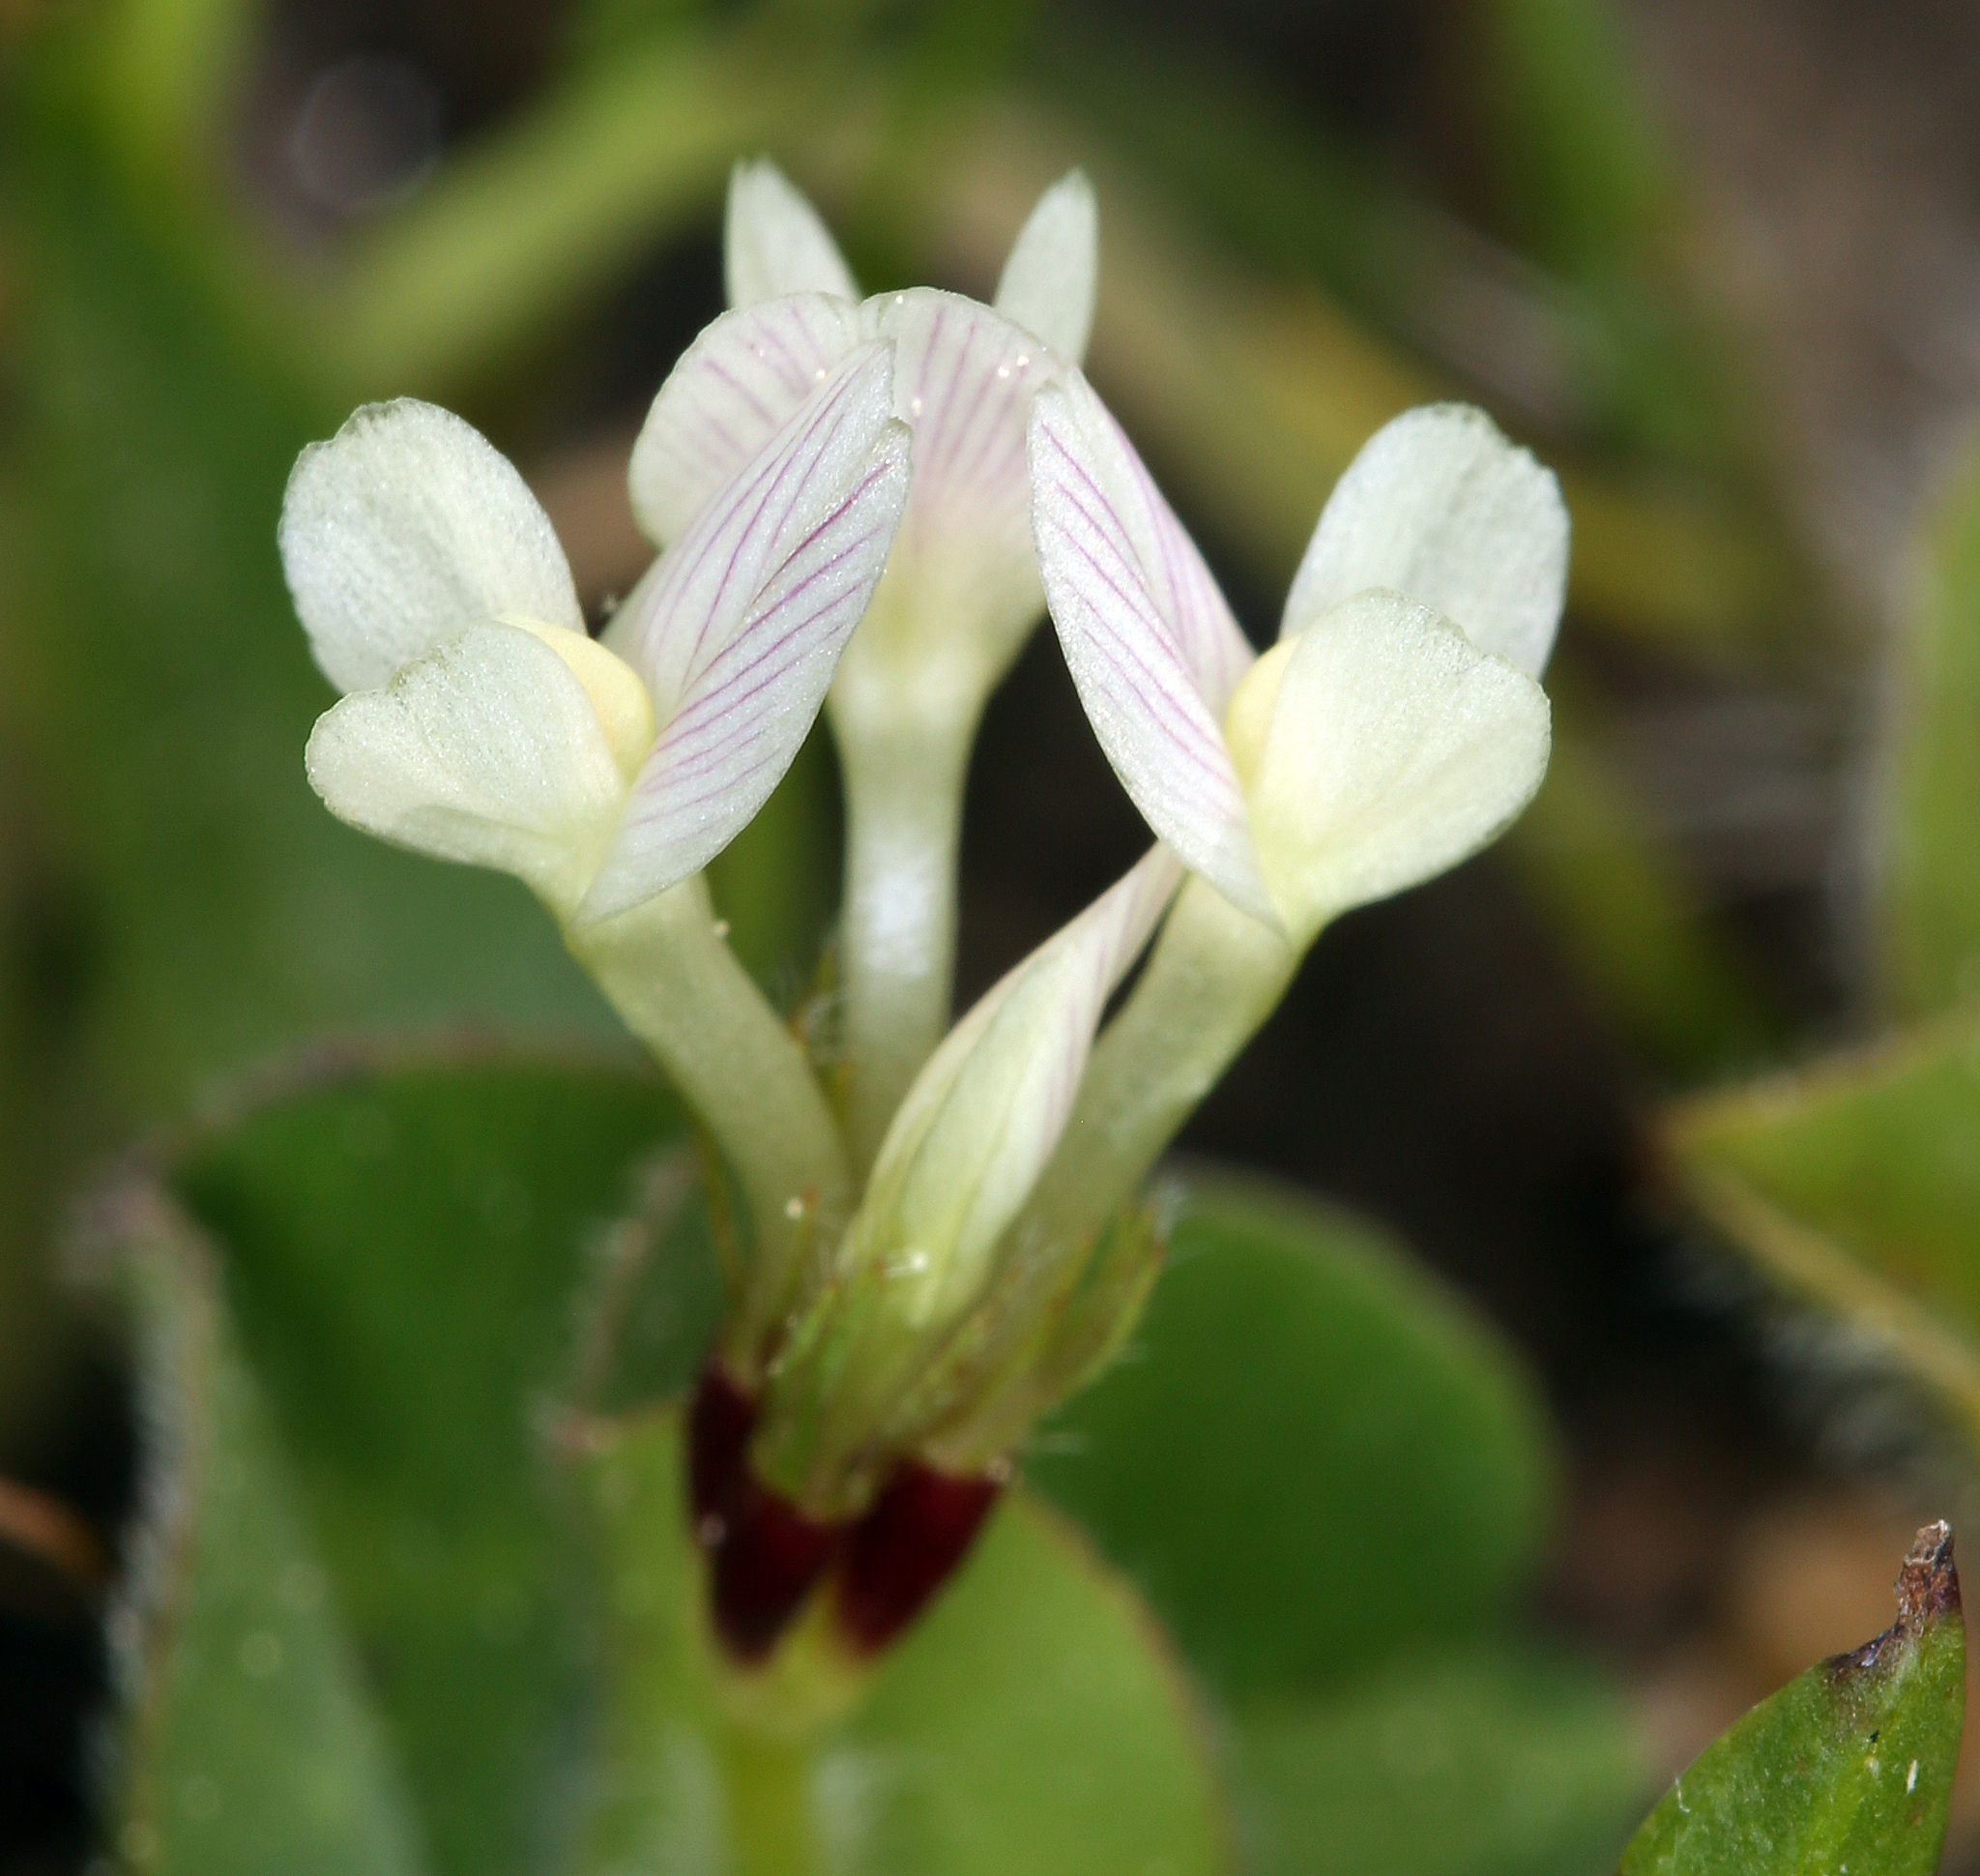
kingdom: Plantae
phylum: Tracheophyta
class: Magnoliopsida
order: Fabales
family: Fabaceae
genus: Trifolium
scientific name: Trifolium subterraneum
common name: Subterranean clover
